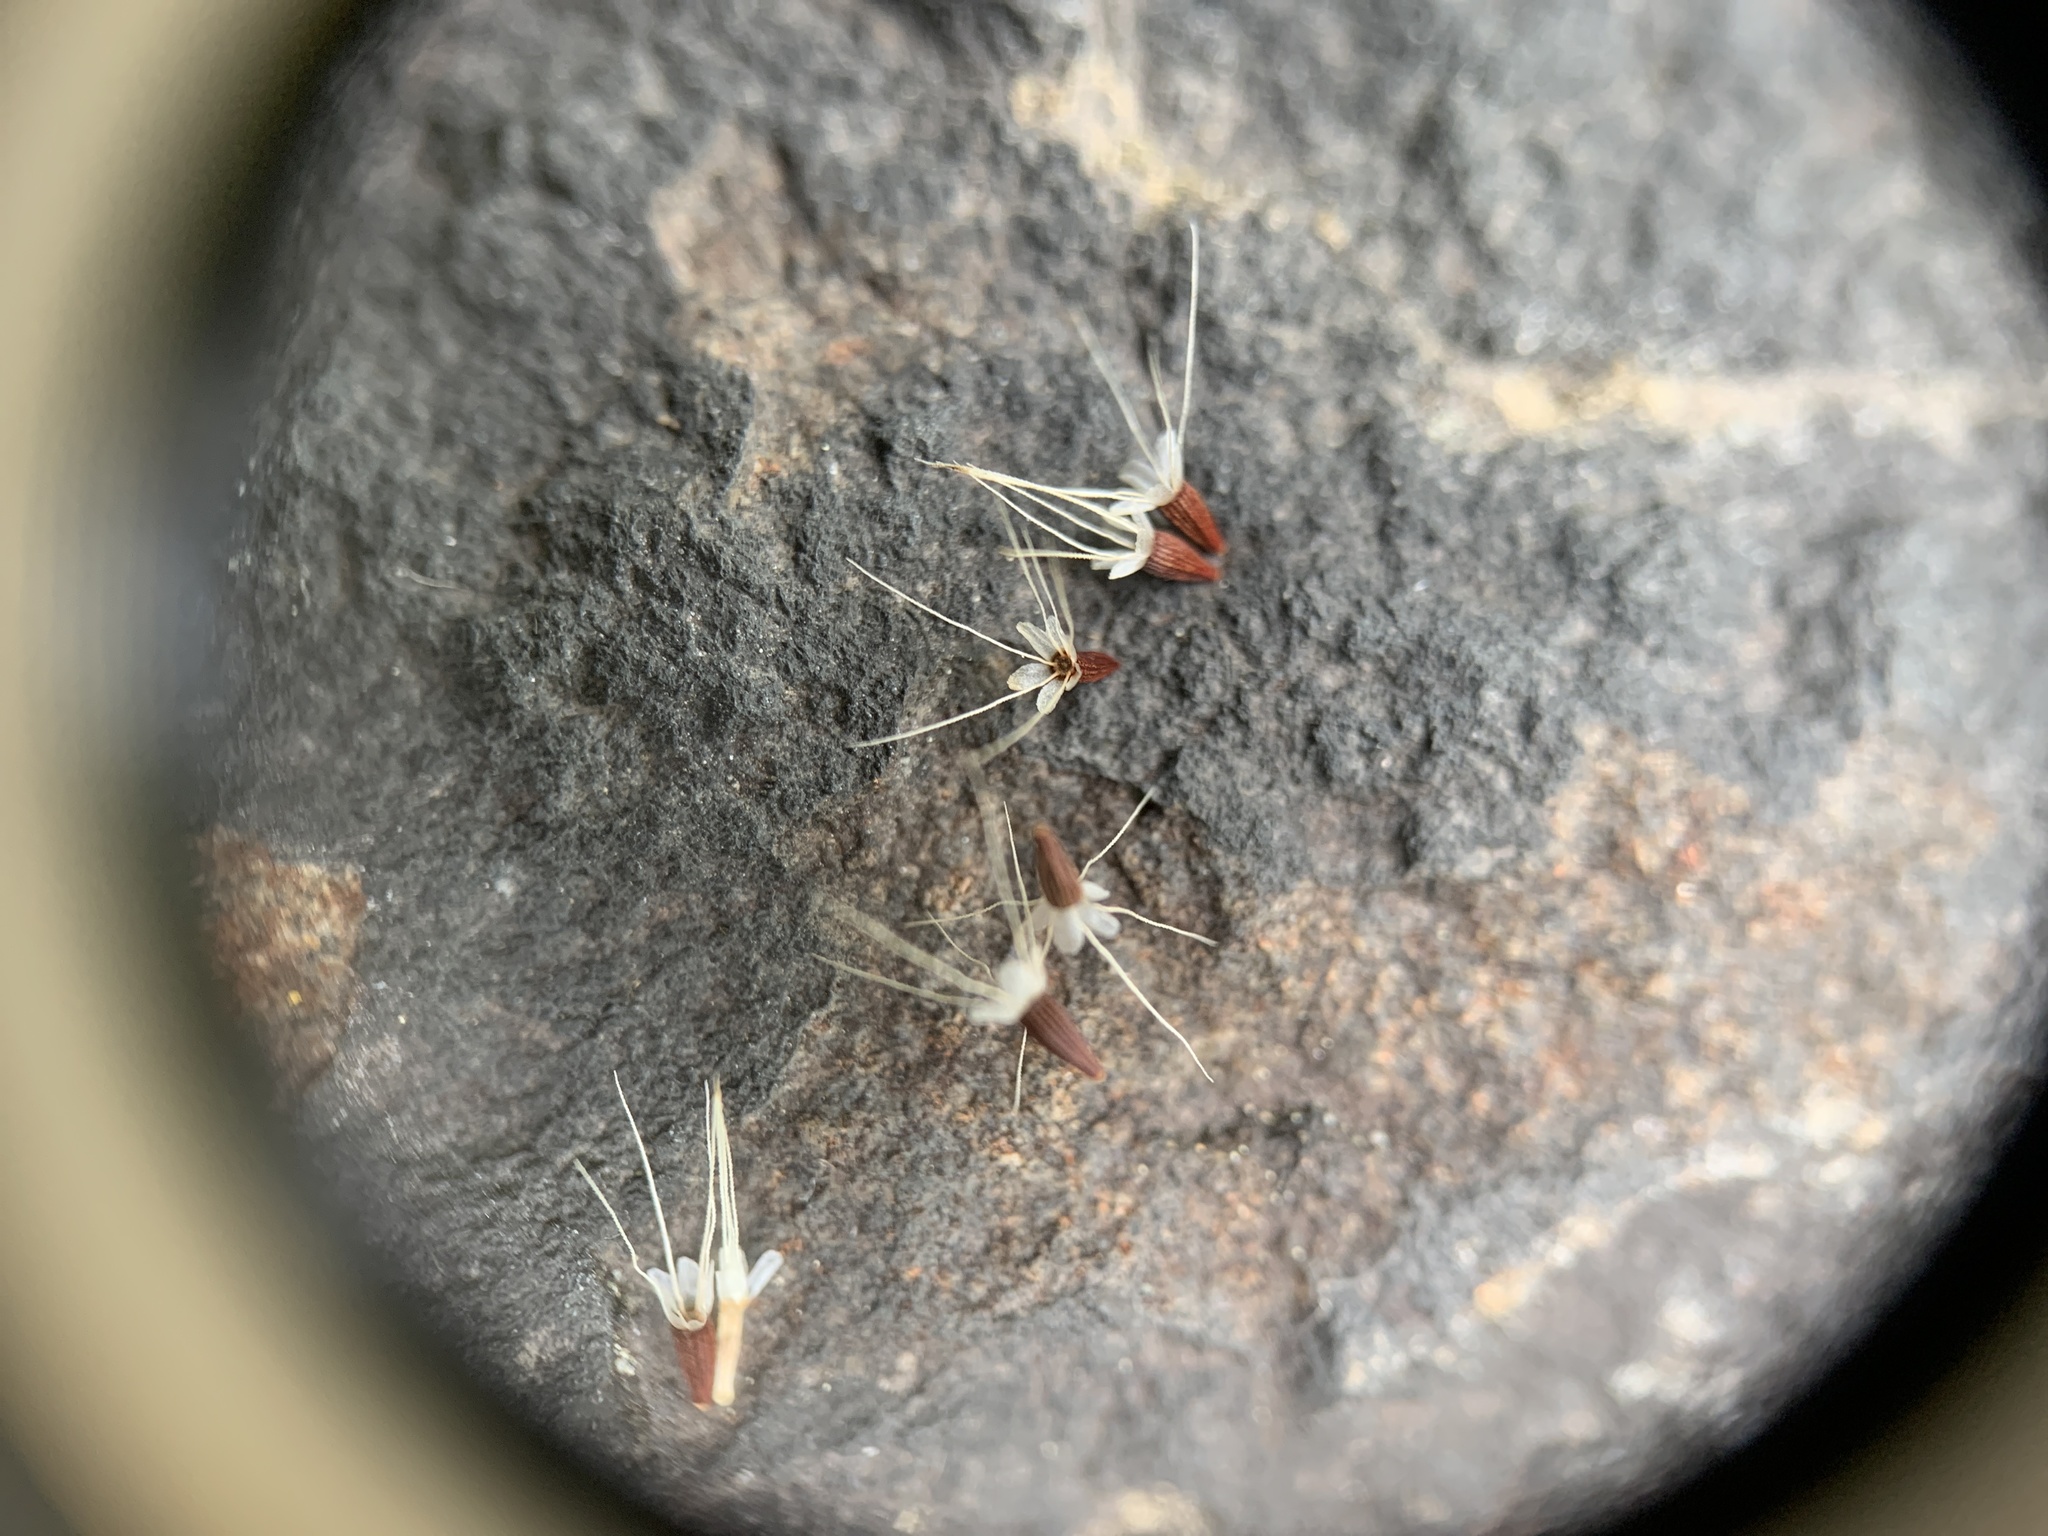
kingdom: Plantae
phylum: Tracheophyta
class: Magnoliopsida
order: Asterales
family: Asteraceae
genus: Krigia
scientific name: Krigia virginica
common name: Virginia dwarf-dandelion
